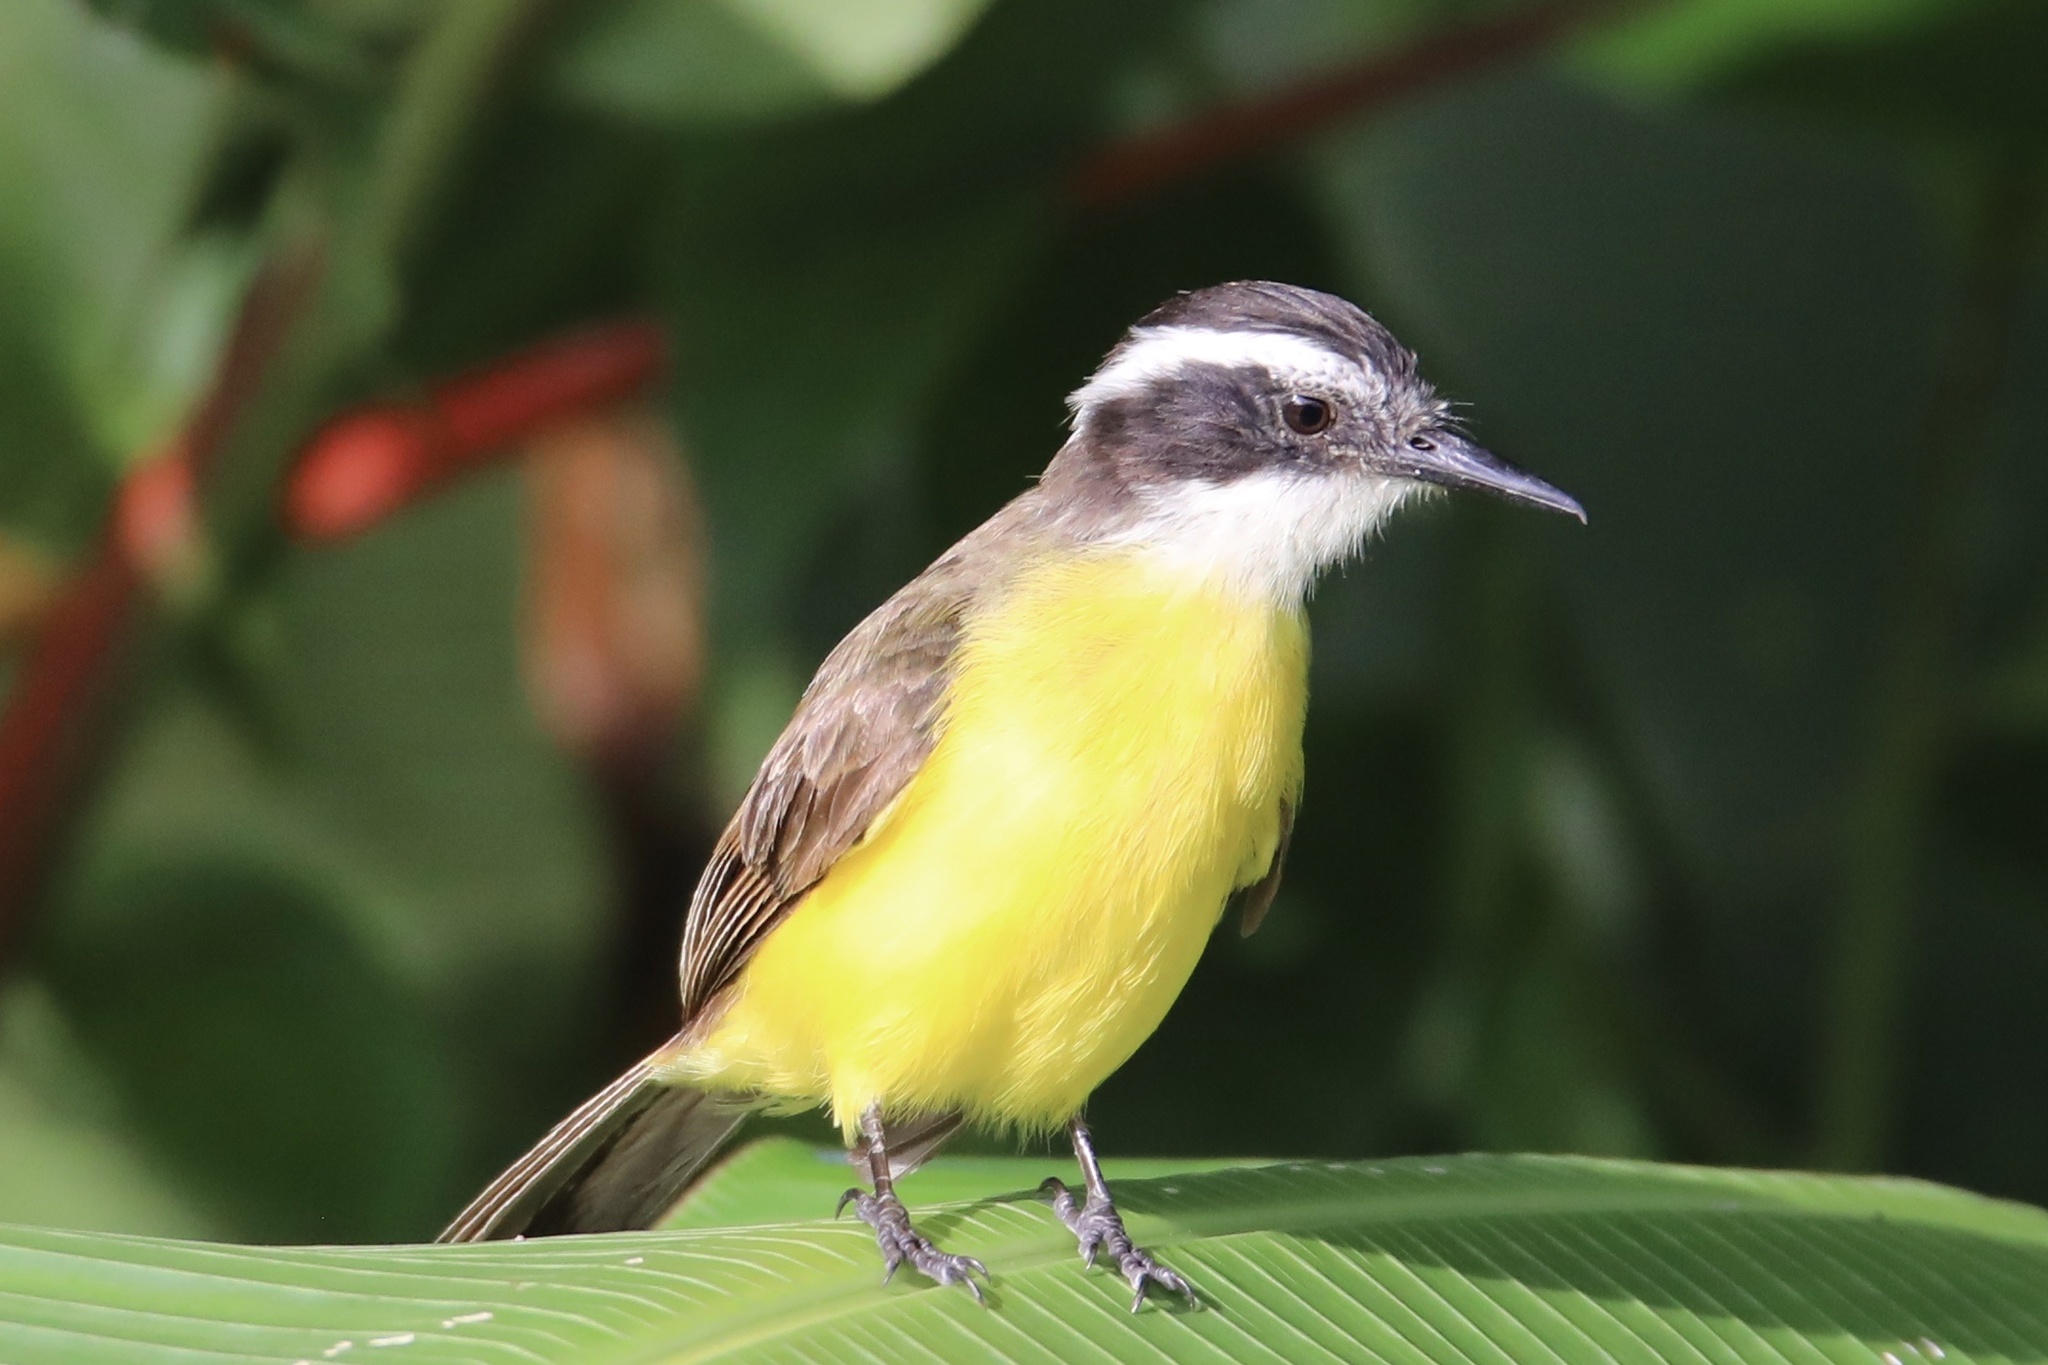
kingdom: Animalia
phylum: Chordata
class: Aves
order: Passeriformes
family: Tyrannidae
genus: Pitangus
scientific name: Pitangus lictor
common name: Lesser kiskadee
